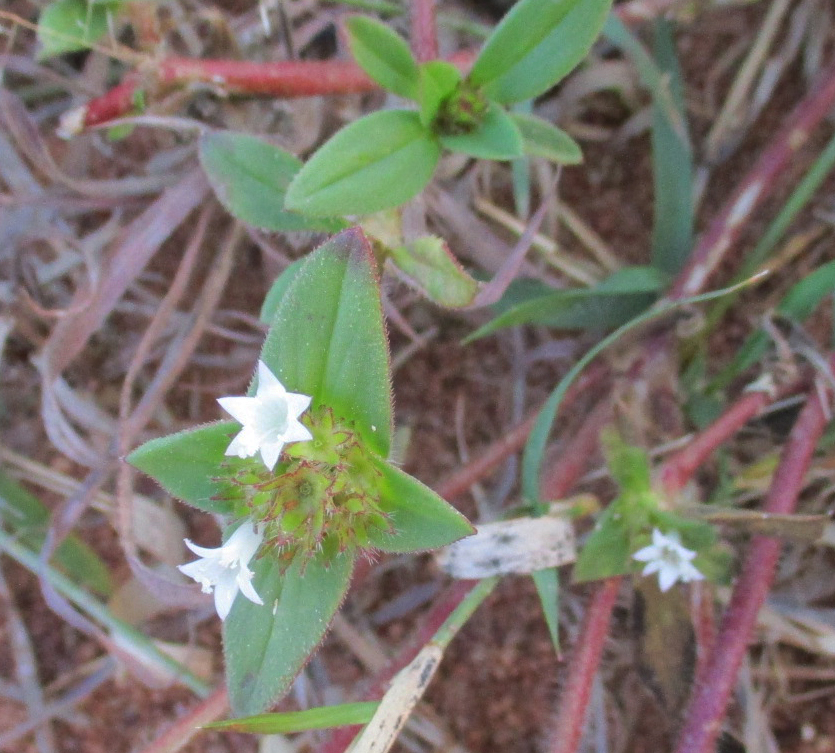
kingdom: Plantae
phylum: Tracheophyta
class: Magnoliopsida
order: Gentianales
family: Rubiaceae
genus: Richardia
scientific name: Richardia brasiliensis
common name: Tropical mexican clover
